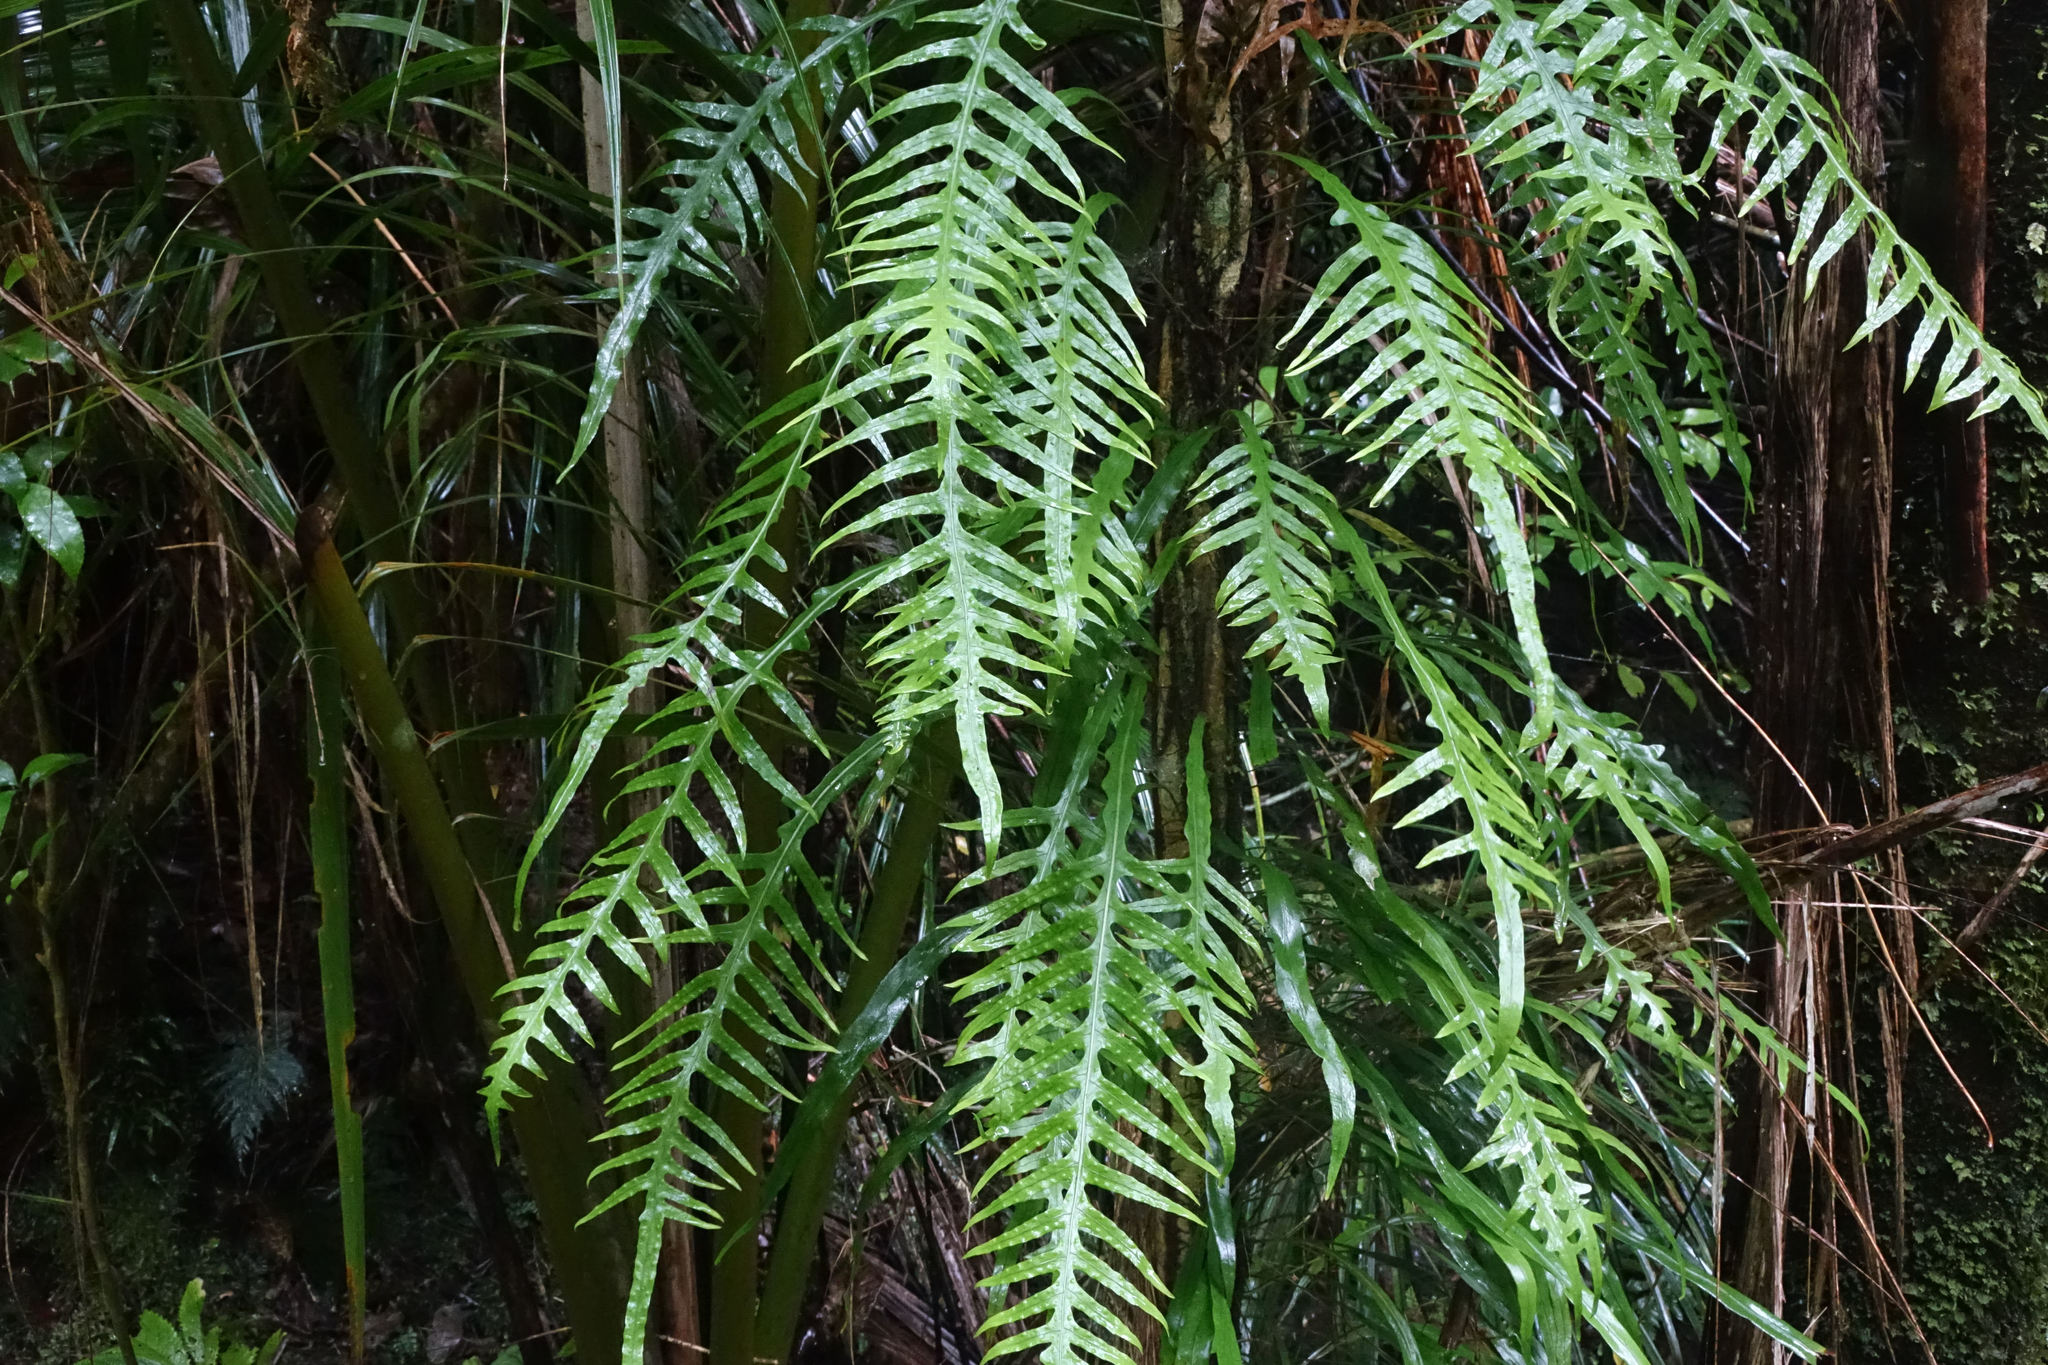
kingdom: Plantae
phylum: Tracheophyta
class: Polypodiopsida
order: Polypodiales
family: Polypodiaceae
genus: Lecanopteris
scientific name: Lecanopteris scandens
